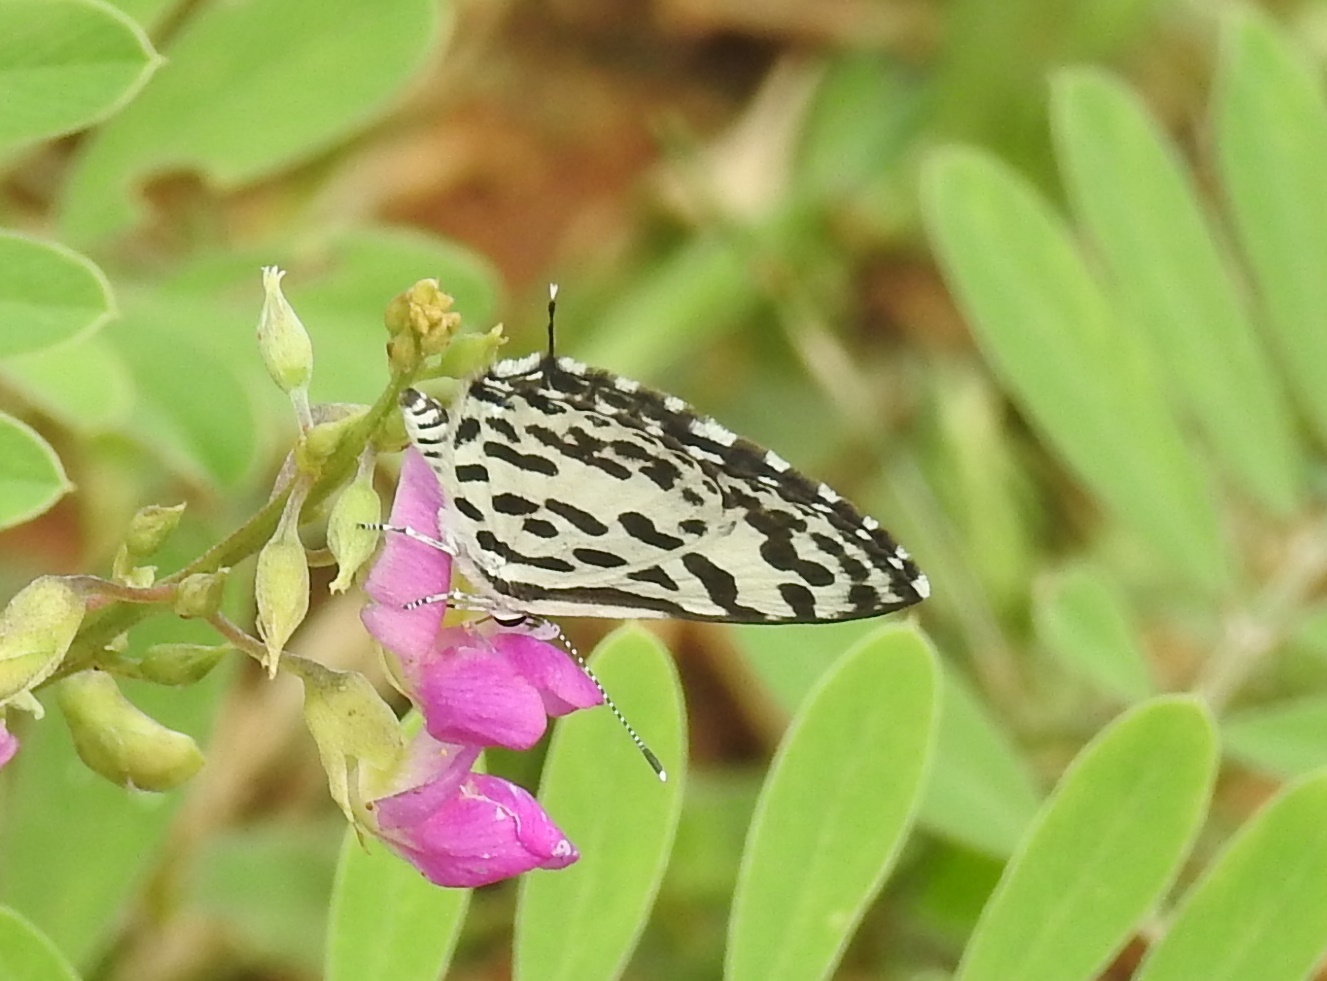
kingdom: Animalia
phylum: Arthropoda
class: Insecta
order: Lepidoptera
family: Lycaenidae
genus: Castalius
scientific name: Castalius rosimon
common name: Common pierrot
